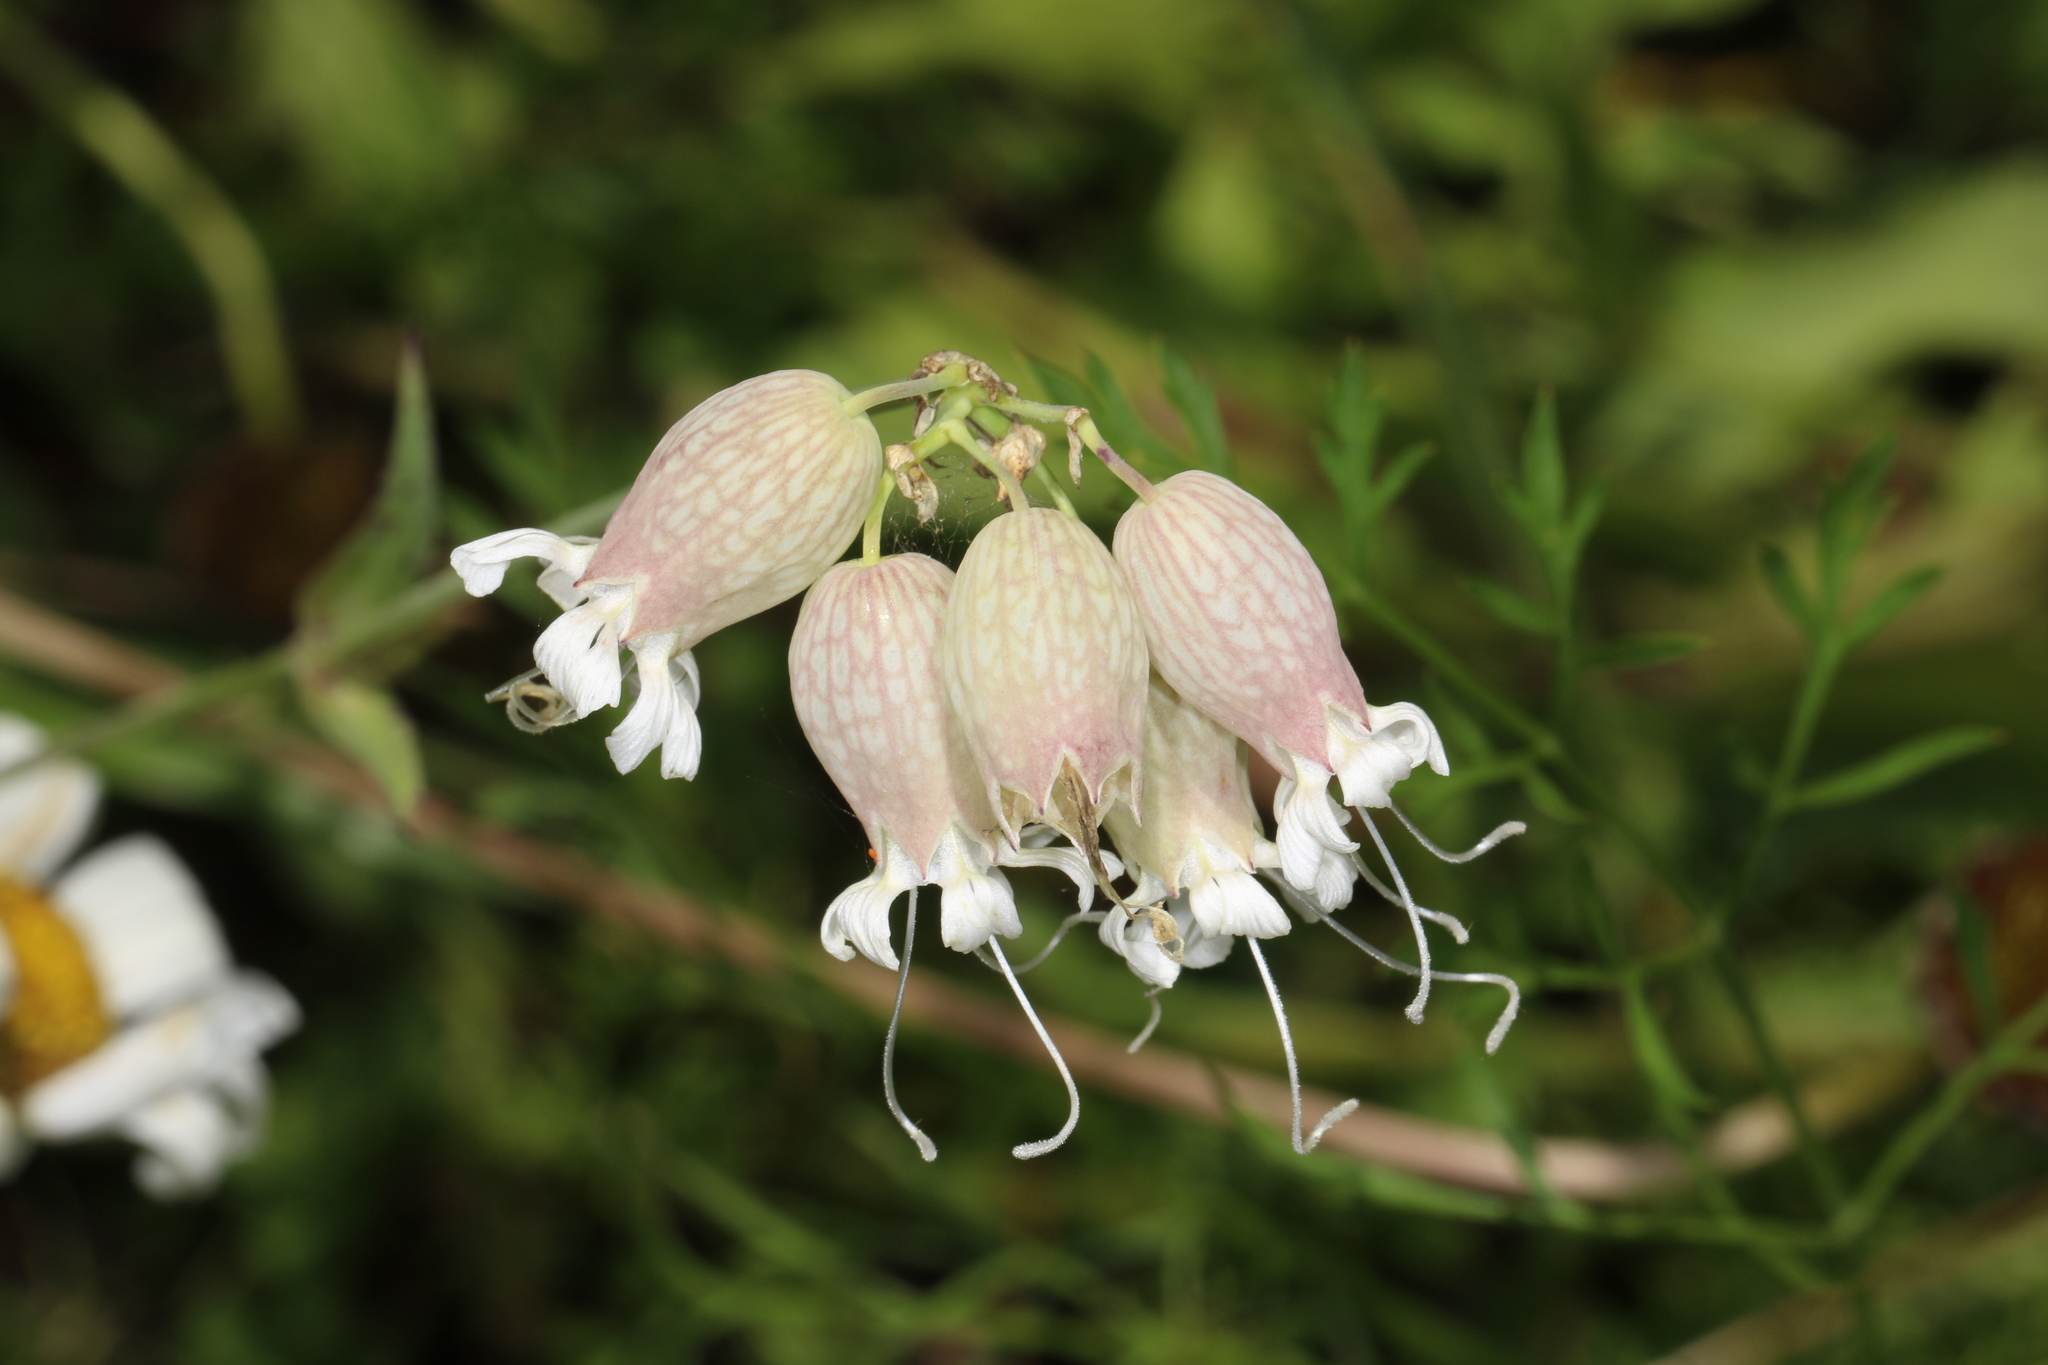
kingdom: Plantae
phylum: Tracheophyta
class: Magnoliopsida
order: Caryophyllales
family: Caryophyllaceae
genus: Silene
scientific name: Silene vulgaris
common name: Bladder campion
